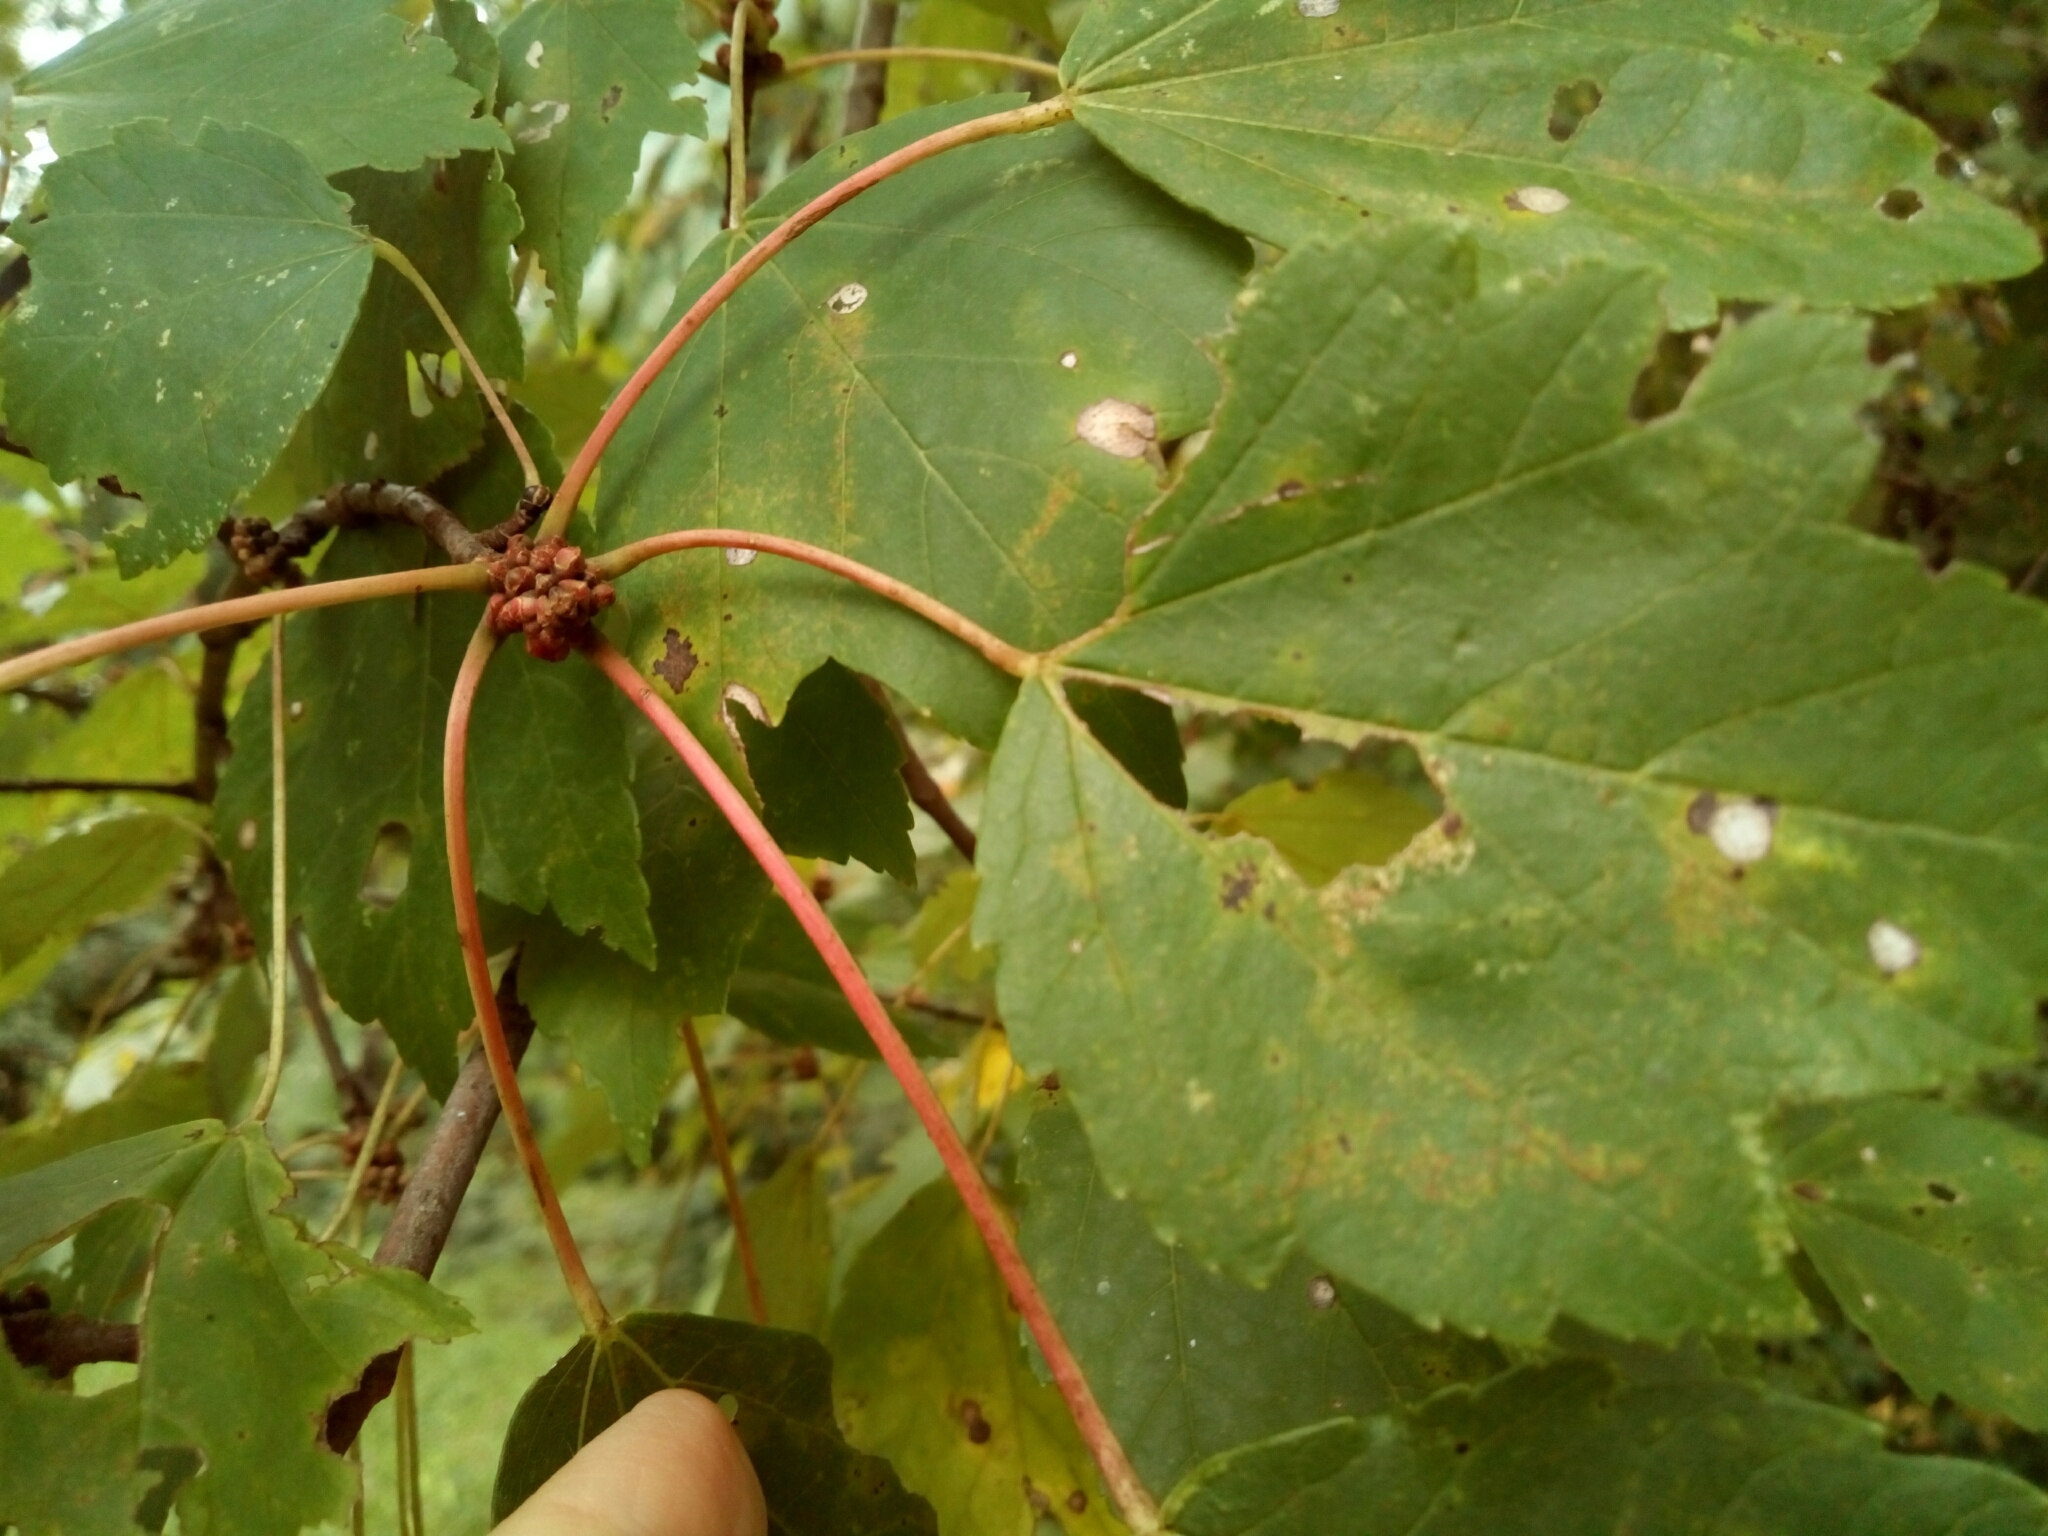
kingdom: Plantae
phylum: Tracheophyta
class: Magnoliopsida
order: Sapindales
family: Sapindaceae
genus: Acer
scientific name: Acer rubrum
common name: Red maple
